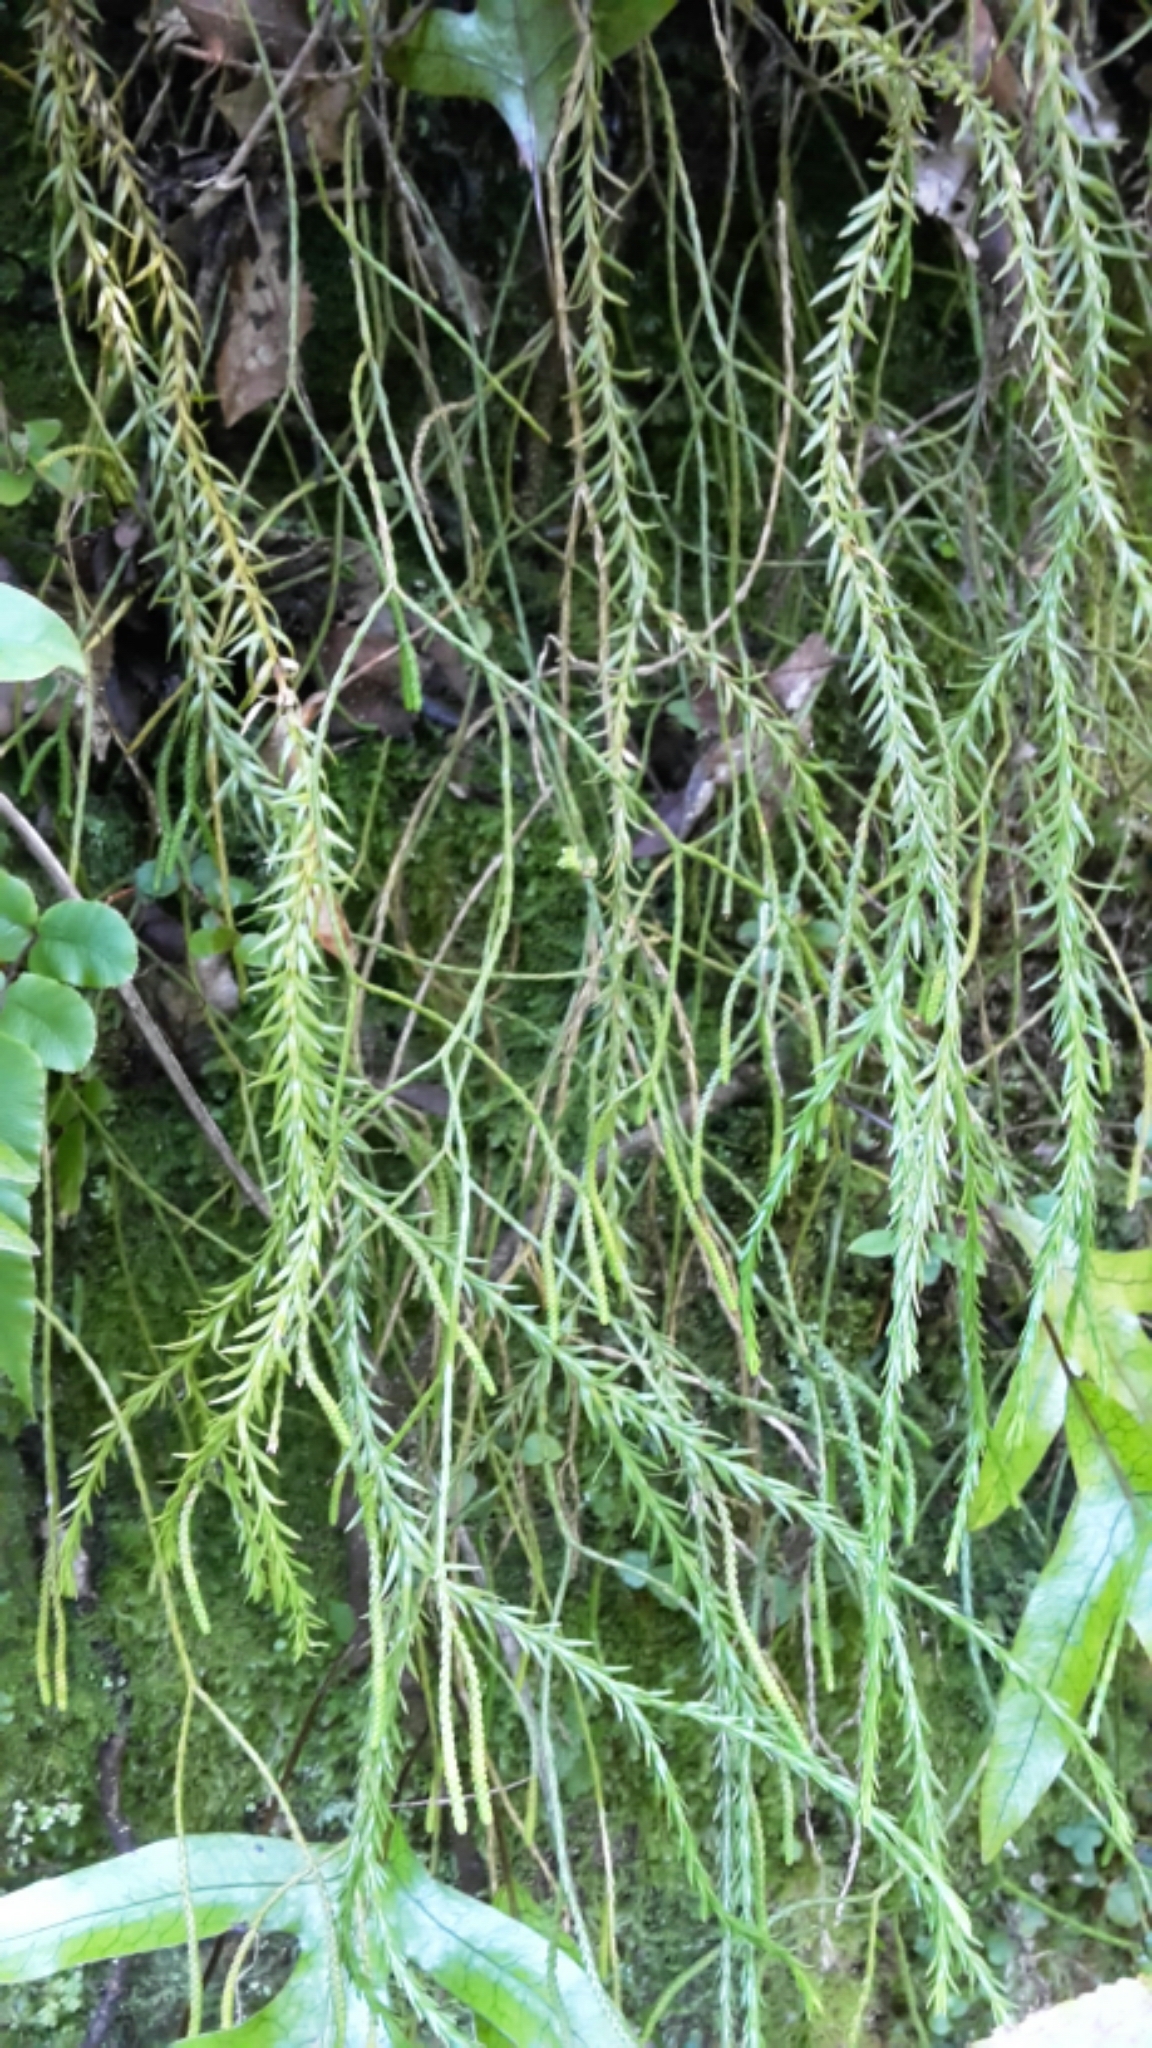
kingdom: Plantae
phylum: Tracheophyta
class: Lycopodiopsida
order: Lycopodiales
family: Lycopodiaceae
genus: Phlegmariurus
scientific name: Phlegmariurus varius
